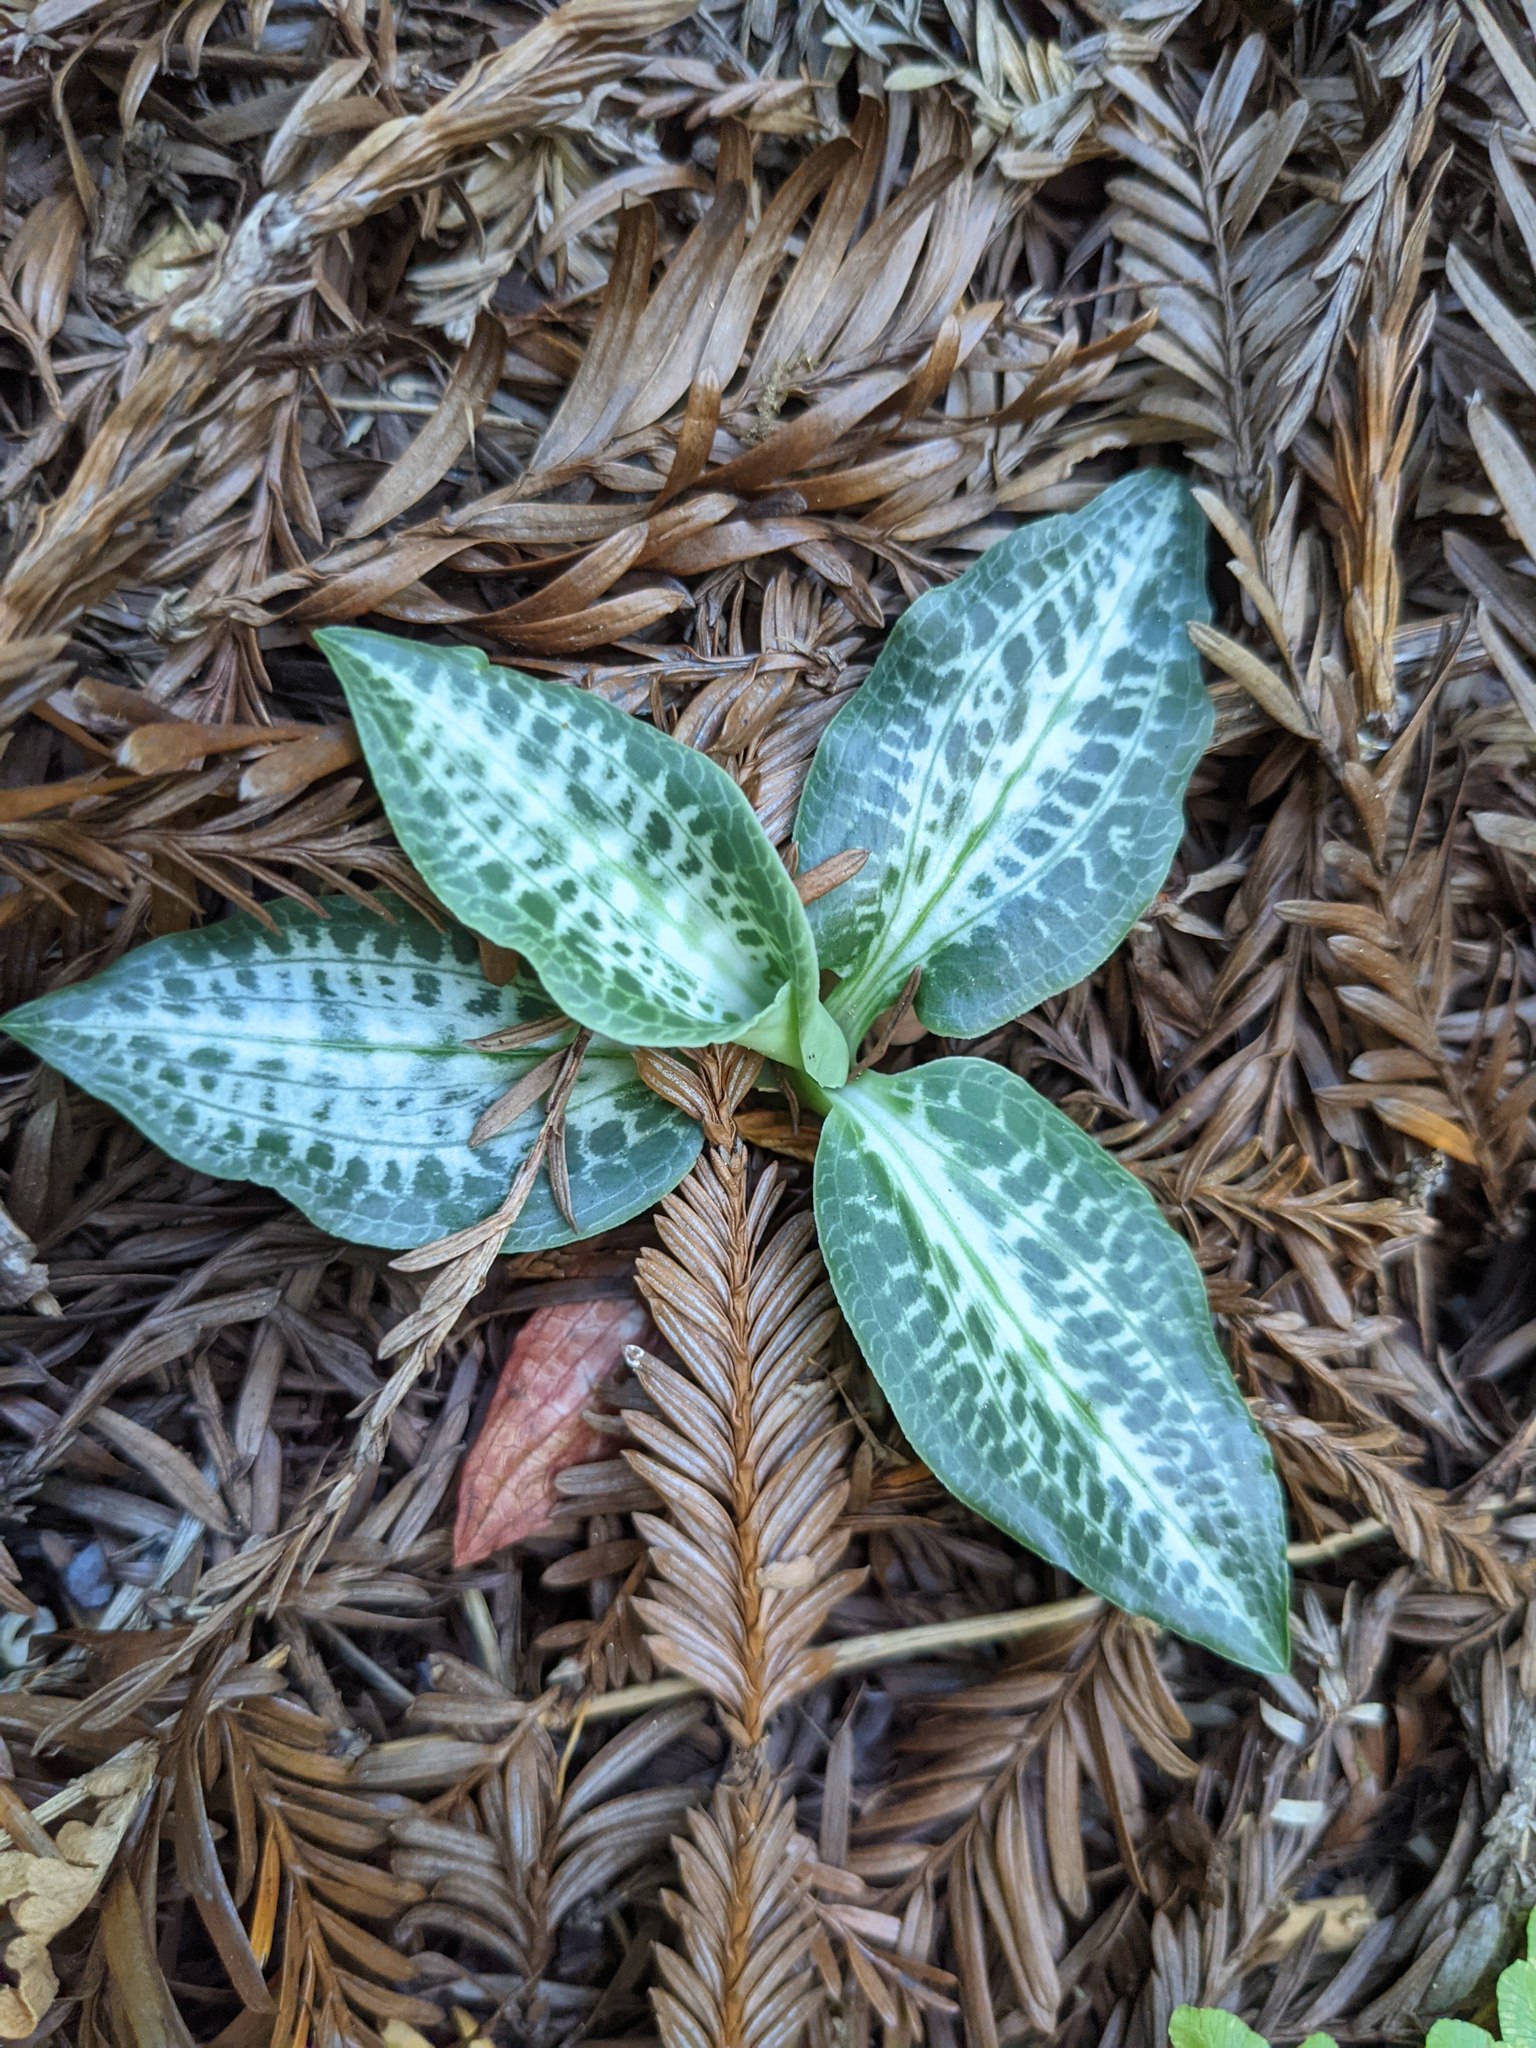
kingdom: Plantae
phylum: Tracheophyta
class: Liliopsida
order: Asparagales
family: Orchidaceae
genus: Goodyera
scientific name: Goodyera oblongifolia
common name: Giant rattlesnake-plantain
